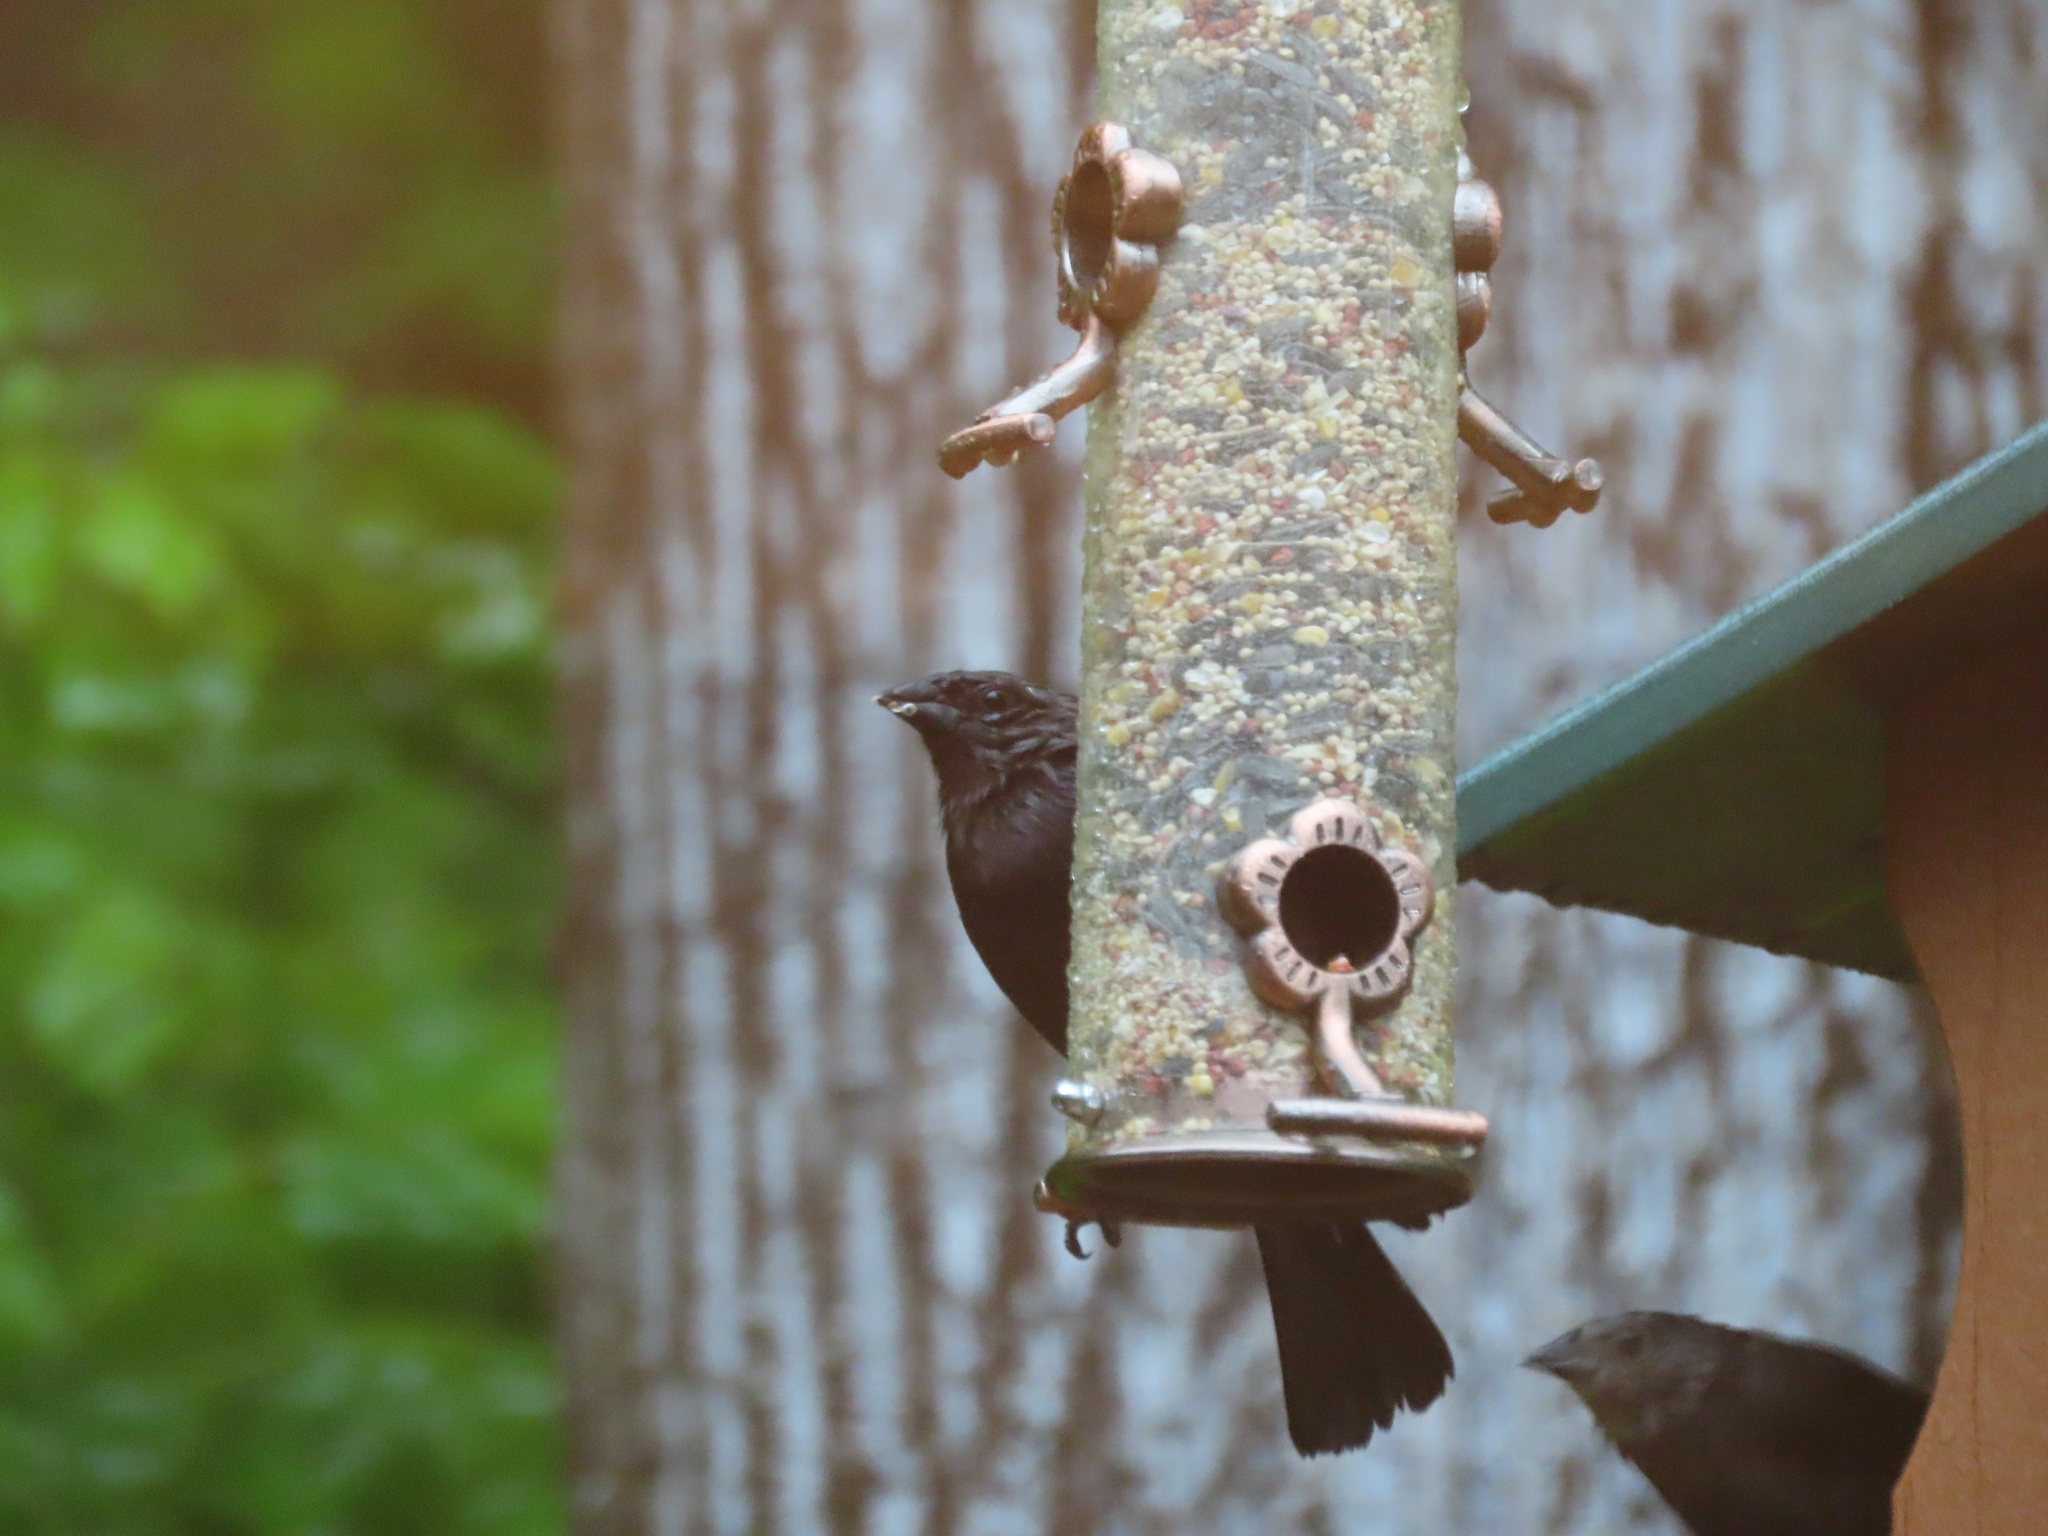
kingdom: Animalia
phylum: Chordata
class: Aves
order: Passeriformes
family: Icteridae
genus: Molothrus
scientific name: Molothrus ater
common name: Brown-headed cowbird
